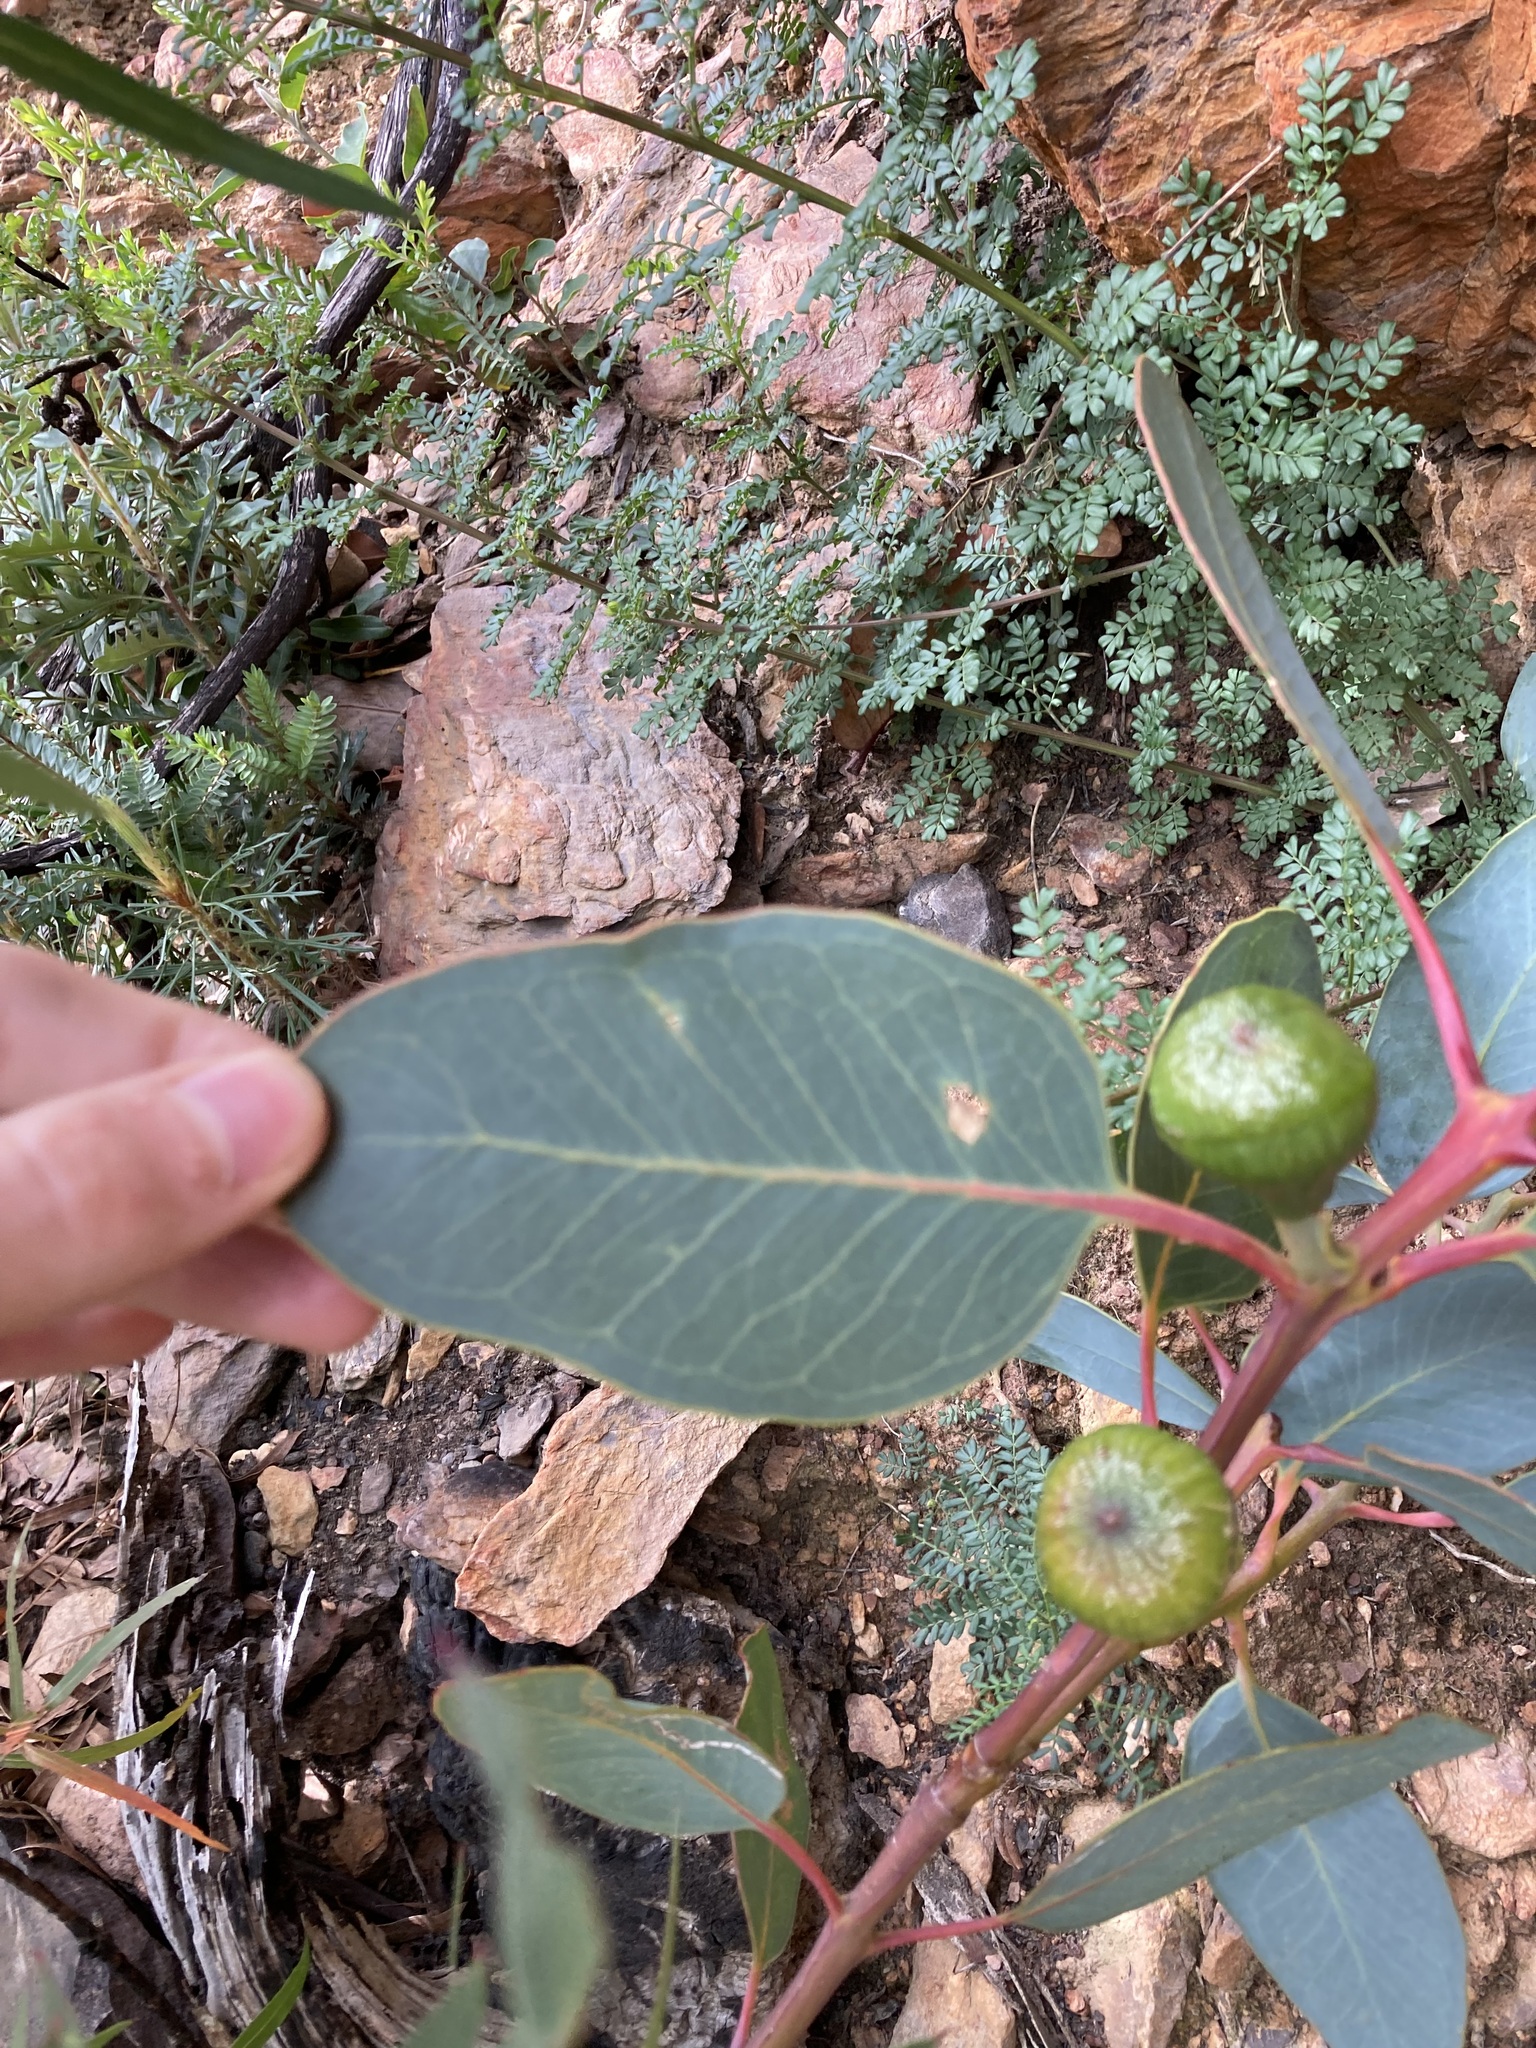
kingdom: Plantae
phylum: Tracheophyta
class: Magnoliopsida
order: Myrtales
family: Myrtaceae
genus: Eucalyptus
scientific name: Eucalyptus preissiana
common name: Stirling range mallee
